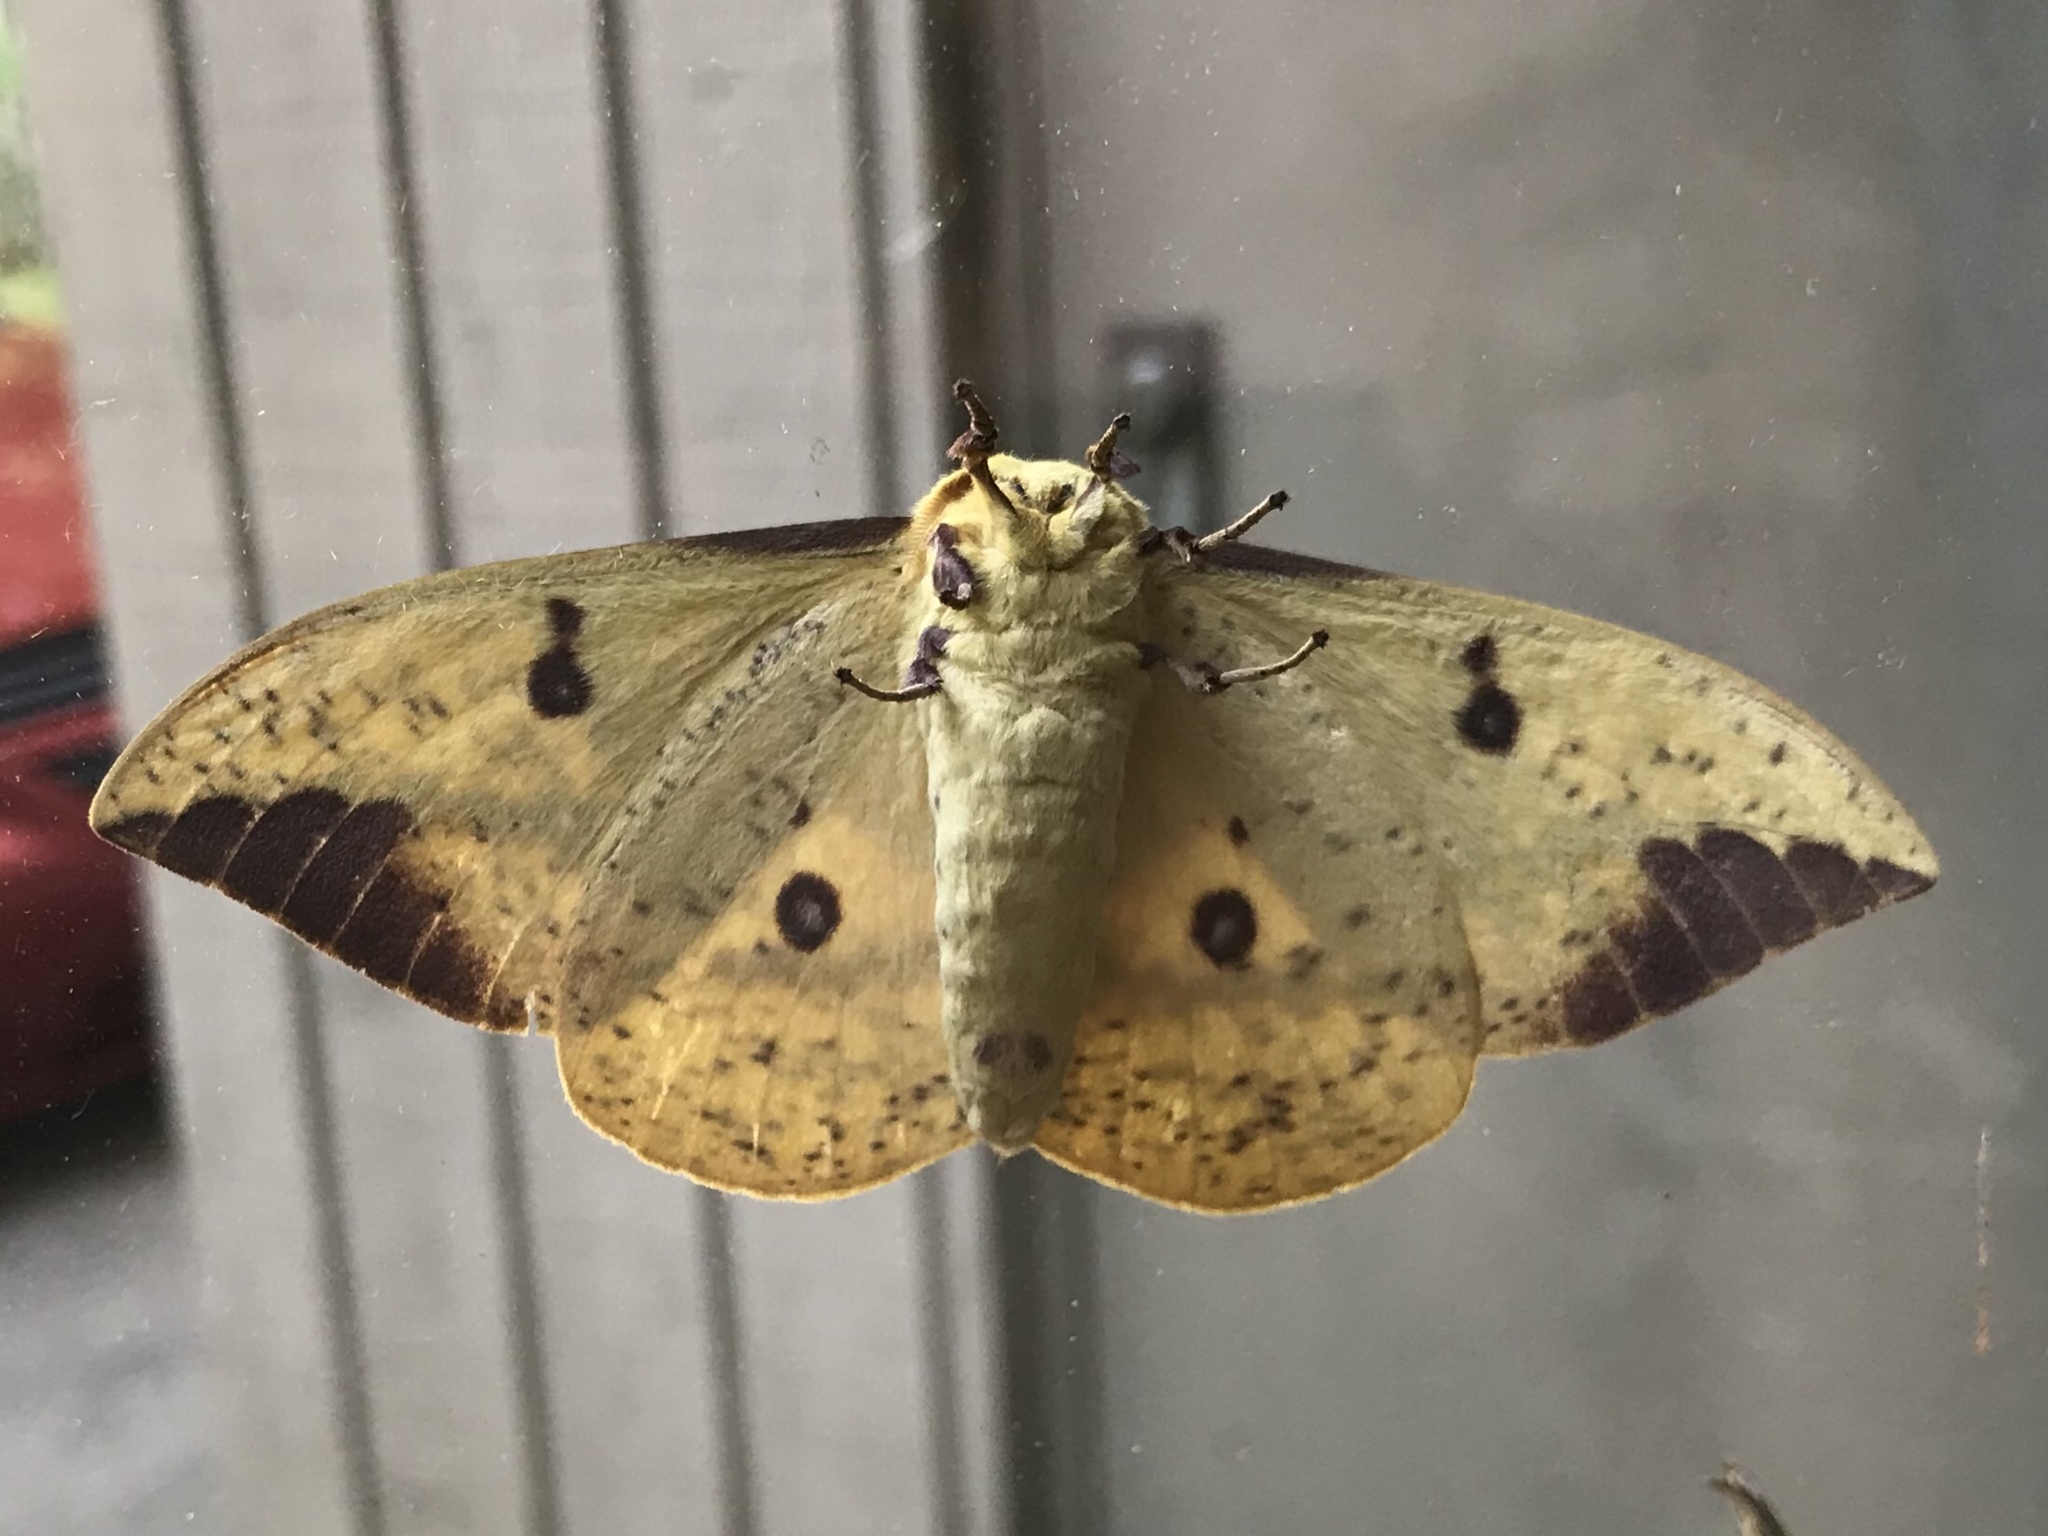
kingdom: Animalia
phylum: Arthropoda
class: Insecta
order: Lepidoptera
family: Saturniidae
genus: Eacles
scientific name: Eacles imperialis
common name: Imperial moth
